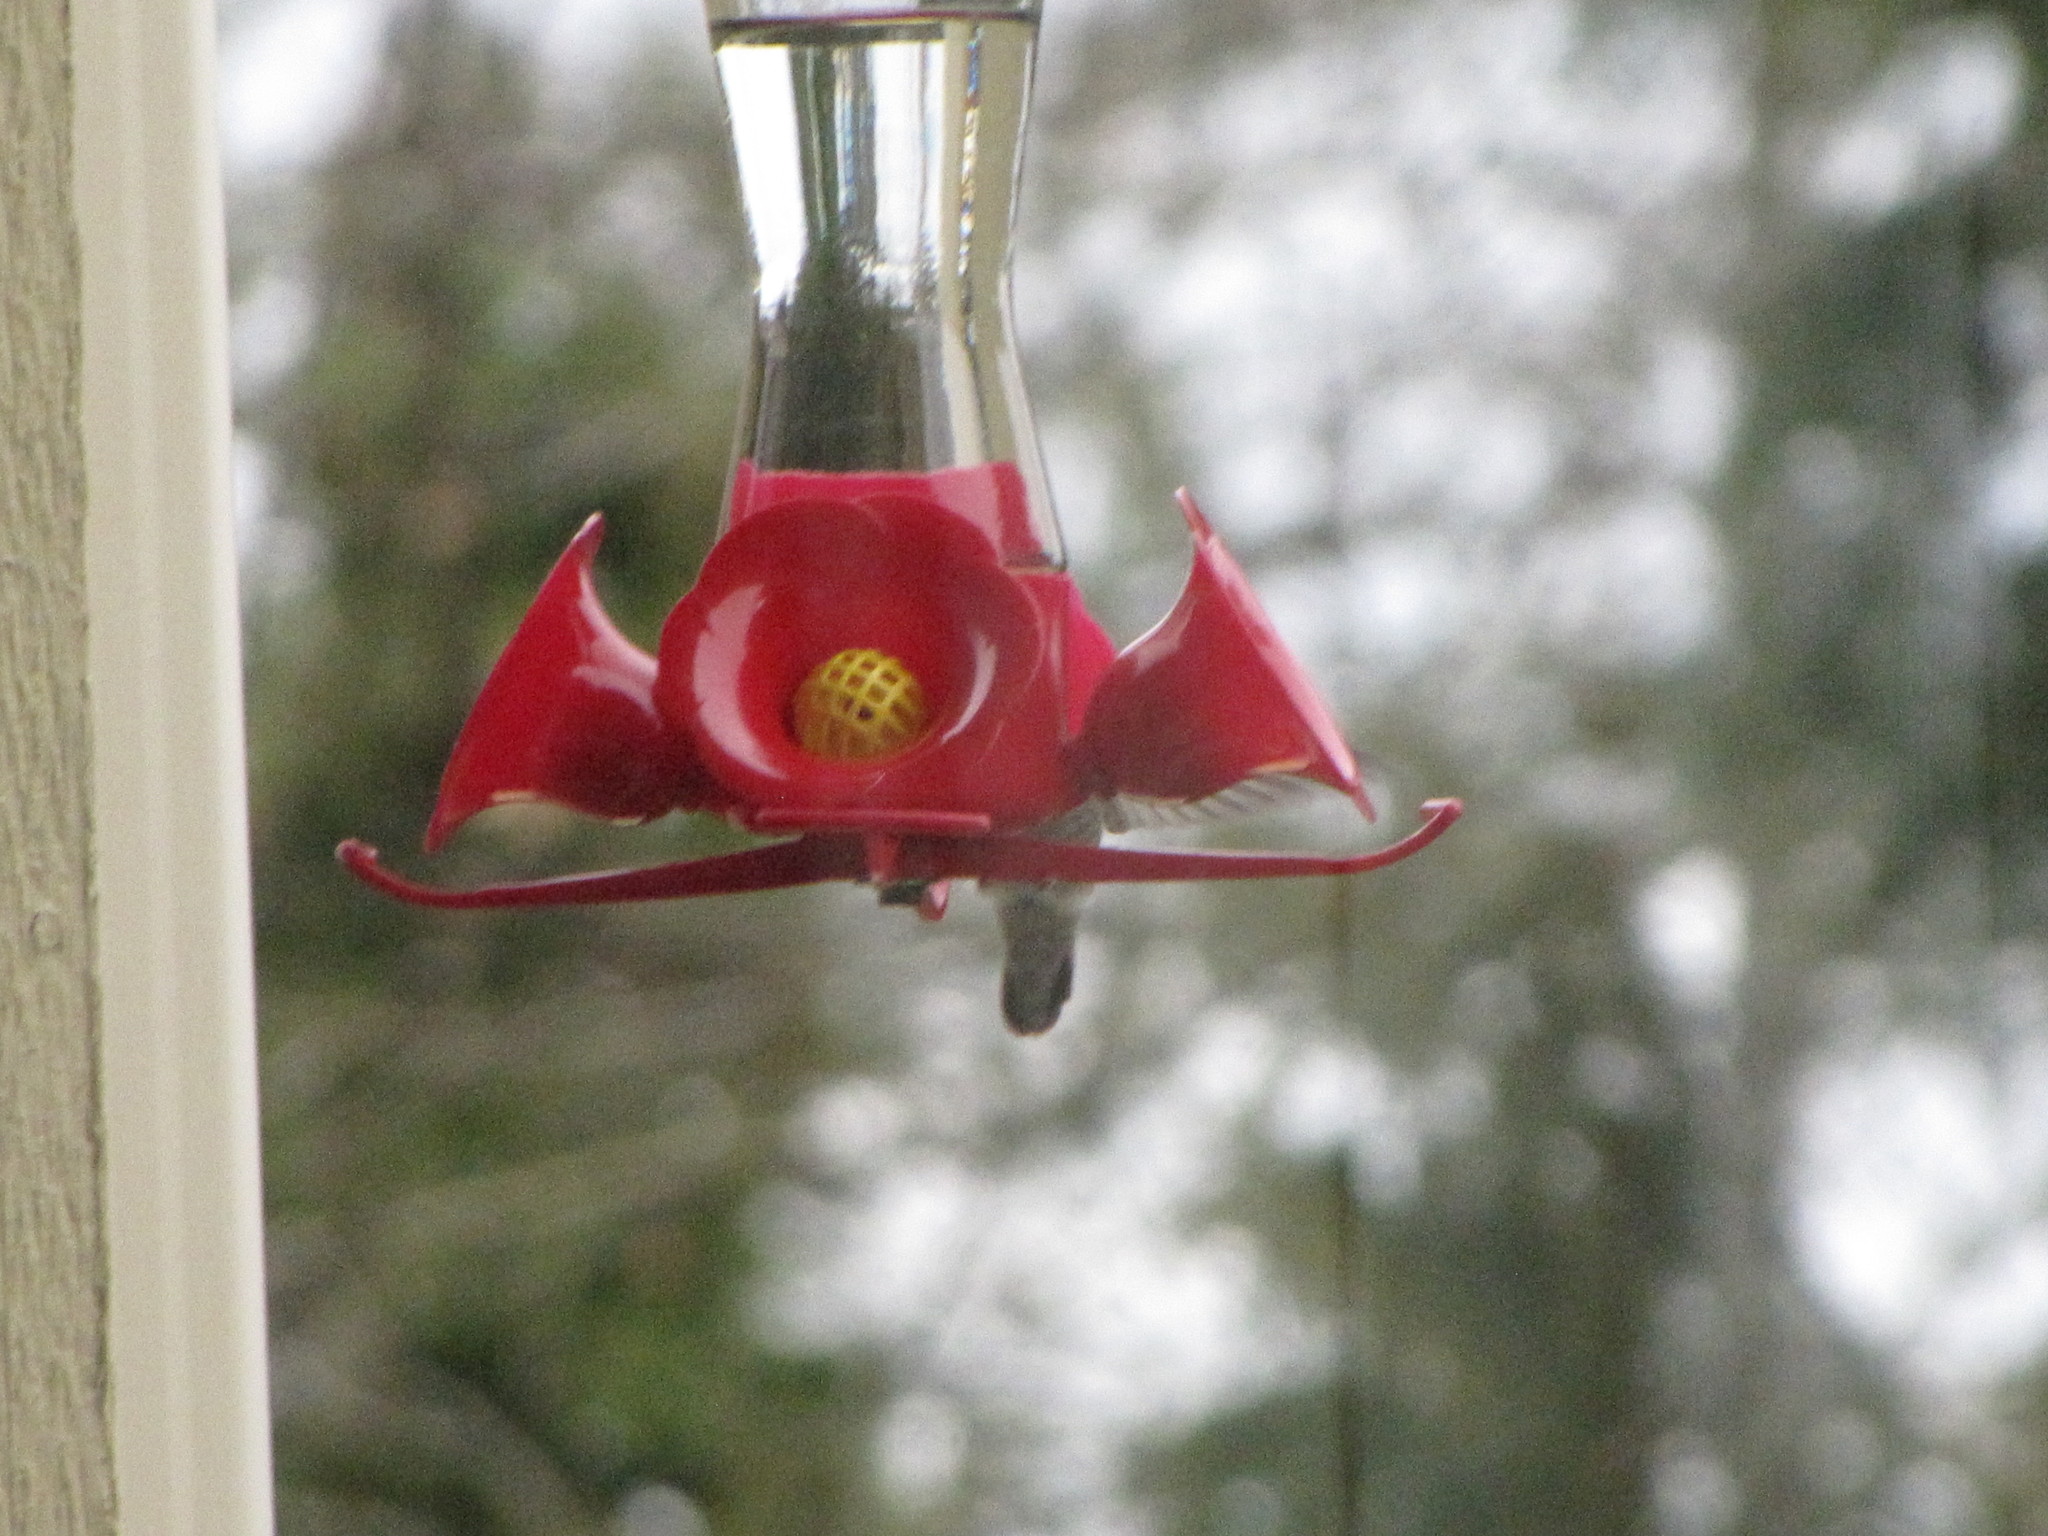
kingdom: Animalia
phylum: Chordata
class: Aves
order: Apodiformes
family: Trochilidae
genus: Calypte
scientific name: Calypte anna
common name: Anna's hummingbird
